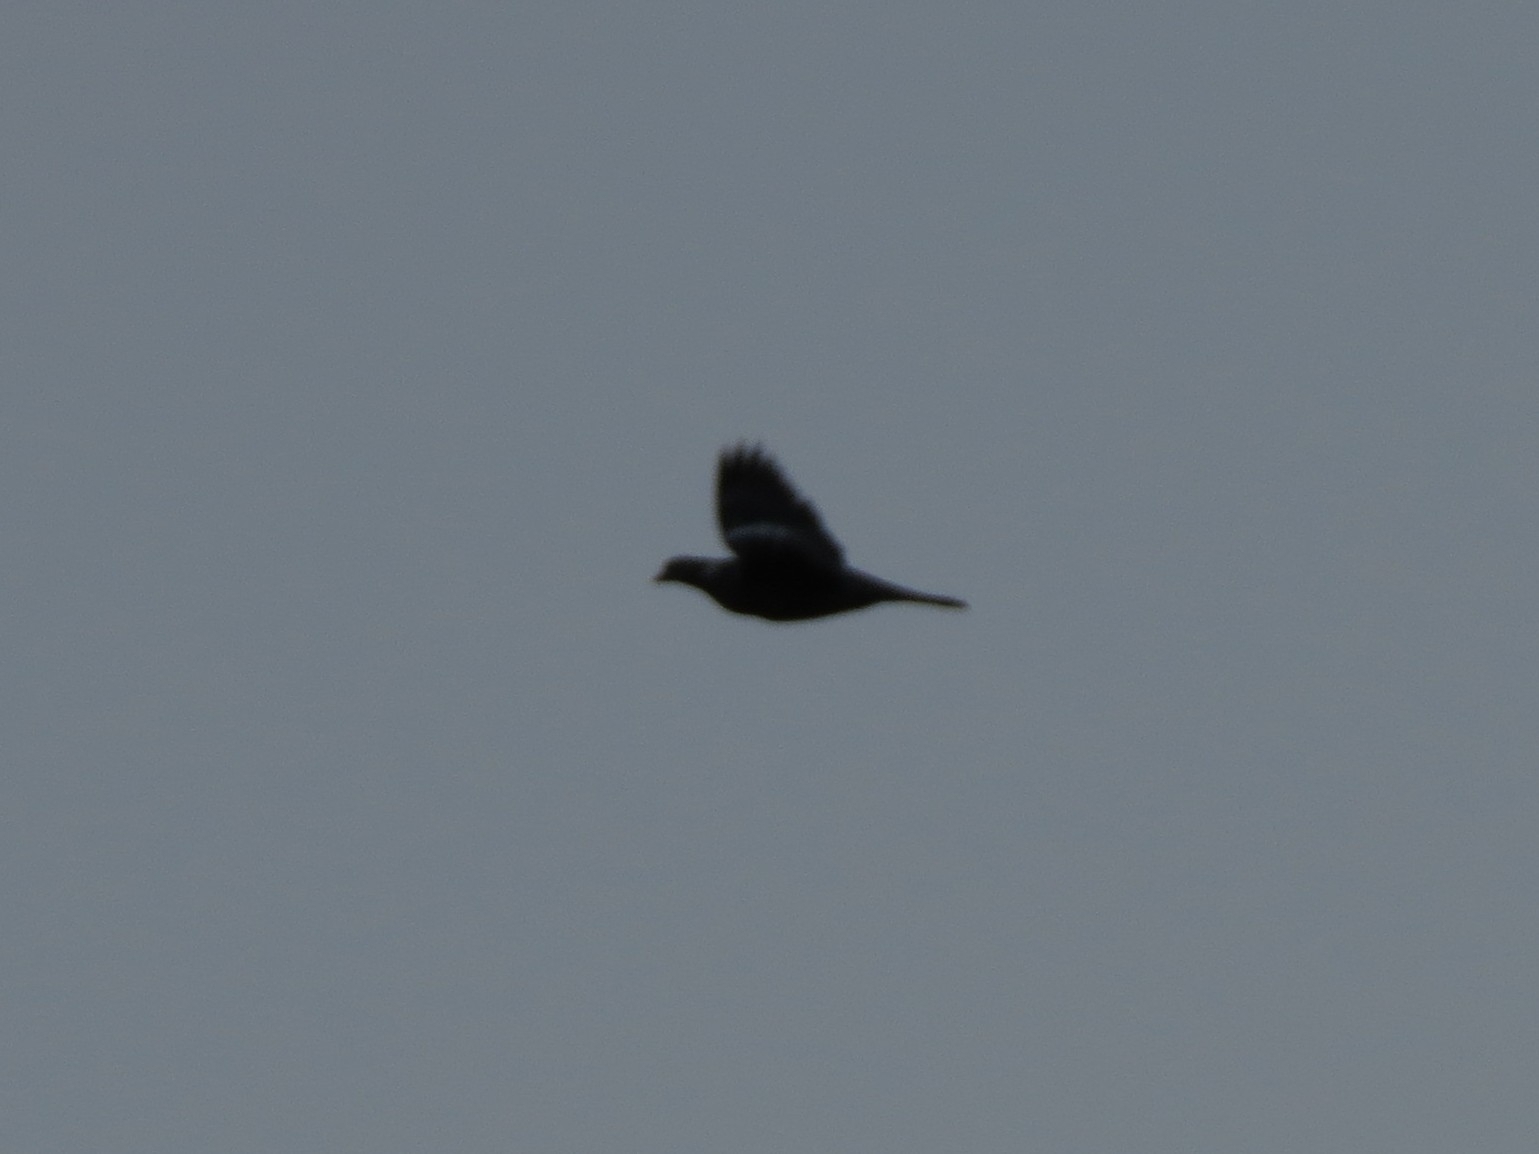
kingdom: Animalia
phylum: Chordata
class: Aves
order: Columbiformes
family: Columbidae
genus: Columba
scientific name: Columba palumbus
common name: Common wood pigeon
